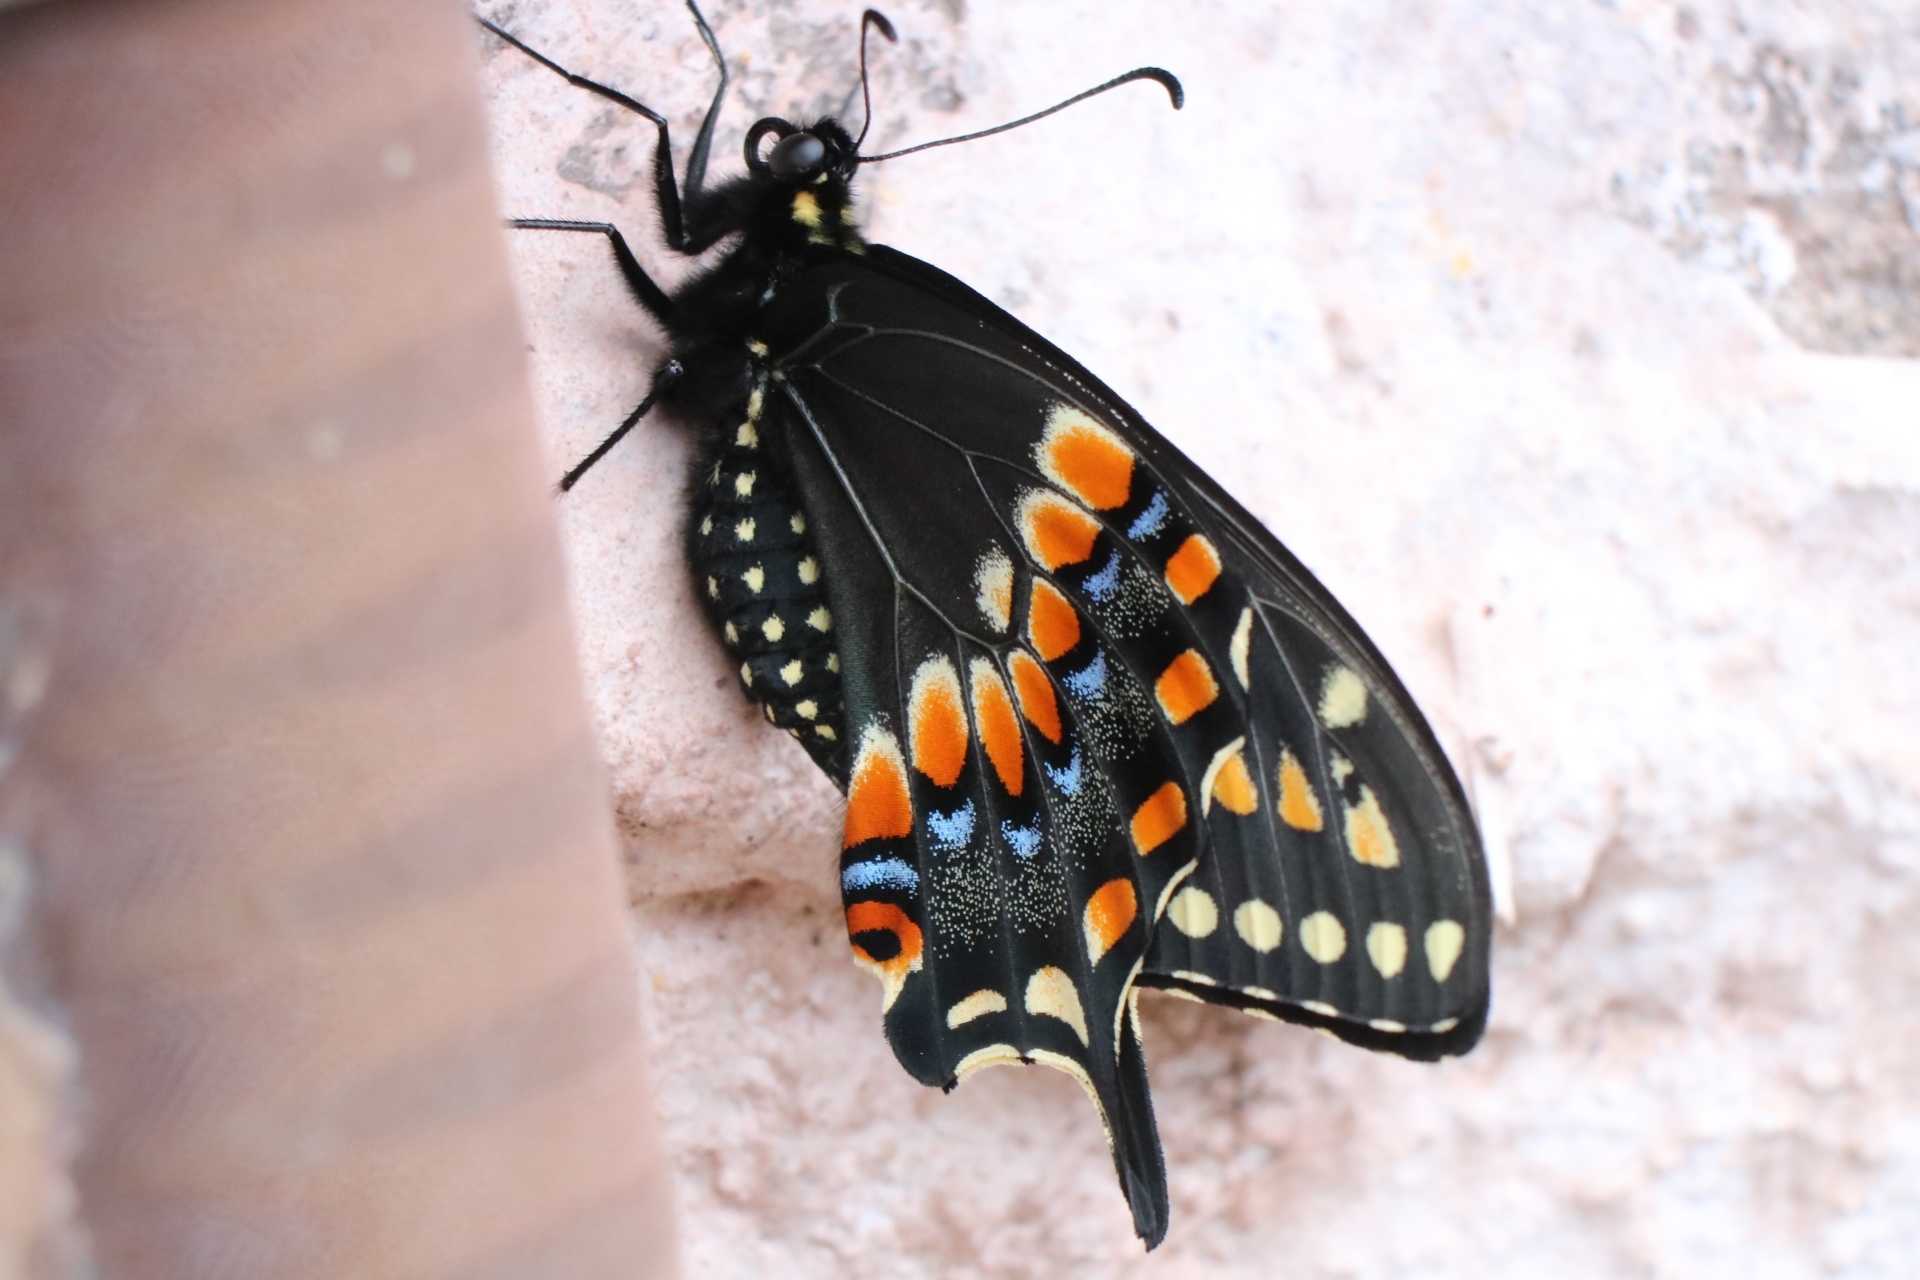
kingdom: Animalia
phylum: Arthropoda
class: Insecta
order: Lepidoptera
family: Papilionidae
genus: Papilio
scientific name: Papilio polyxenes
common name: Black swallowtail
